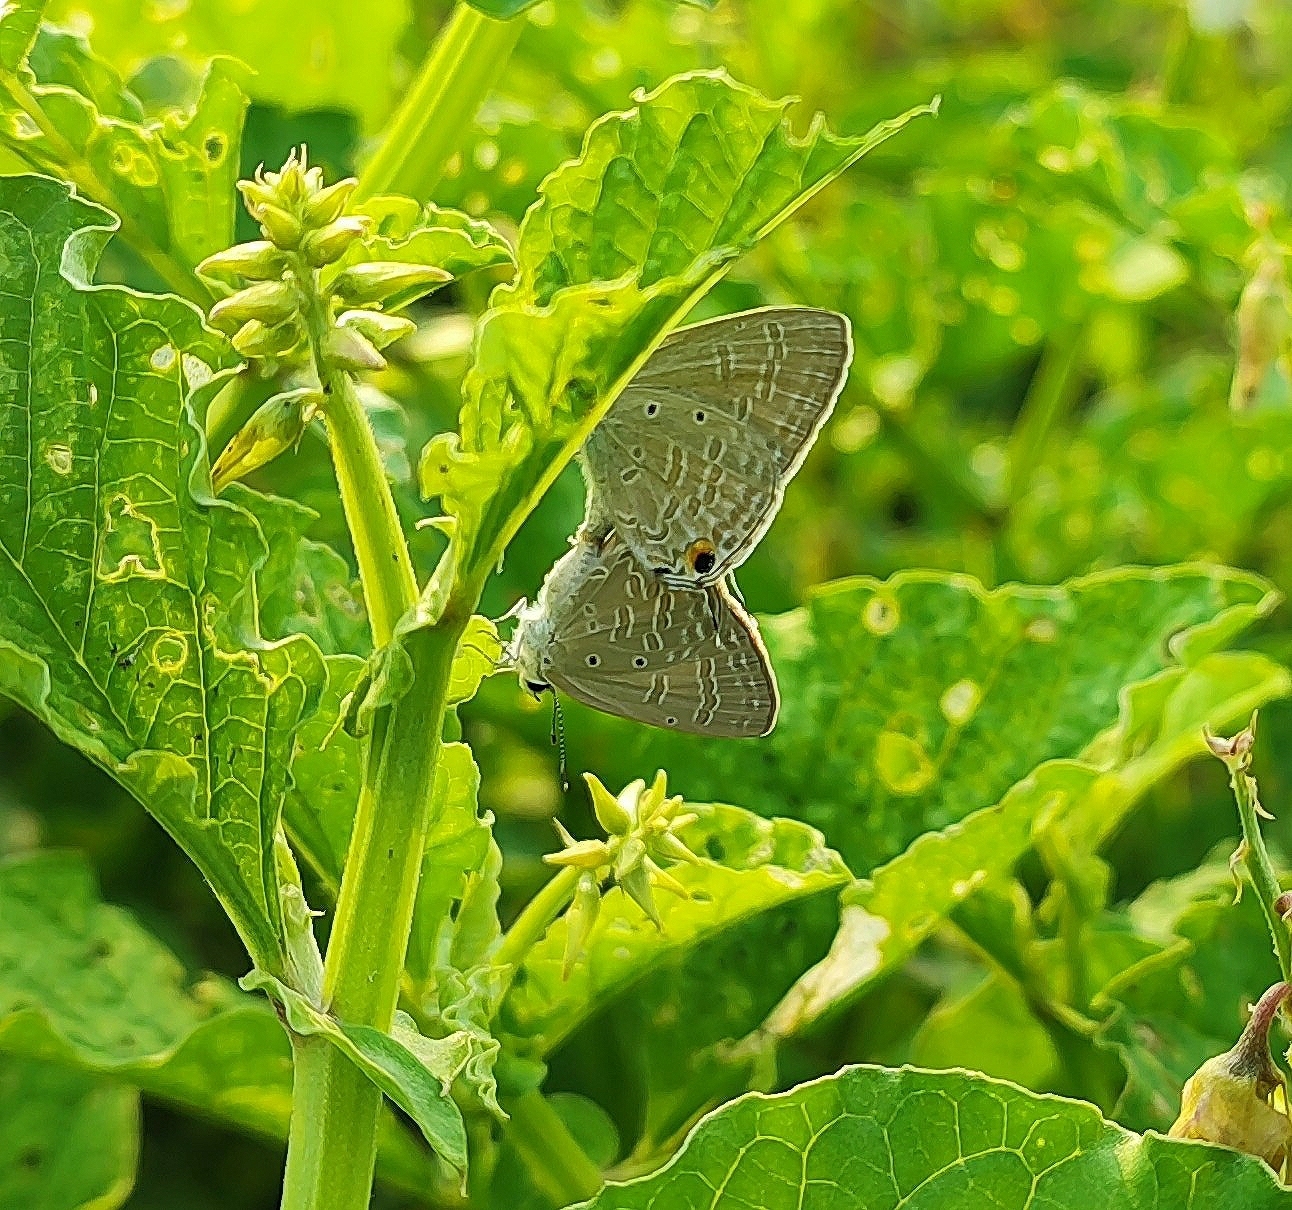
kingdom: Animalia
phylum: Arthropoda
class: Insecta
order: Lepidoptera
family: Lycaenidae
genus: Catochrysops
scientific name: Catochrysops strabo
